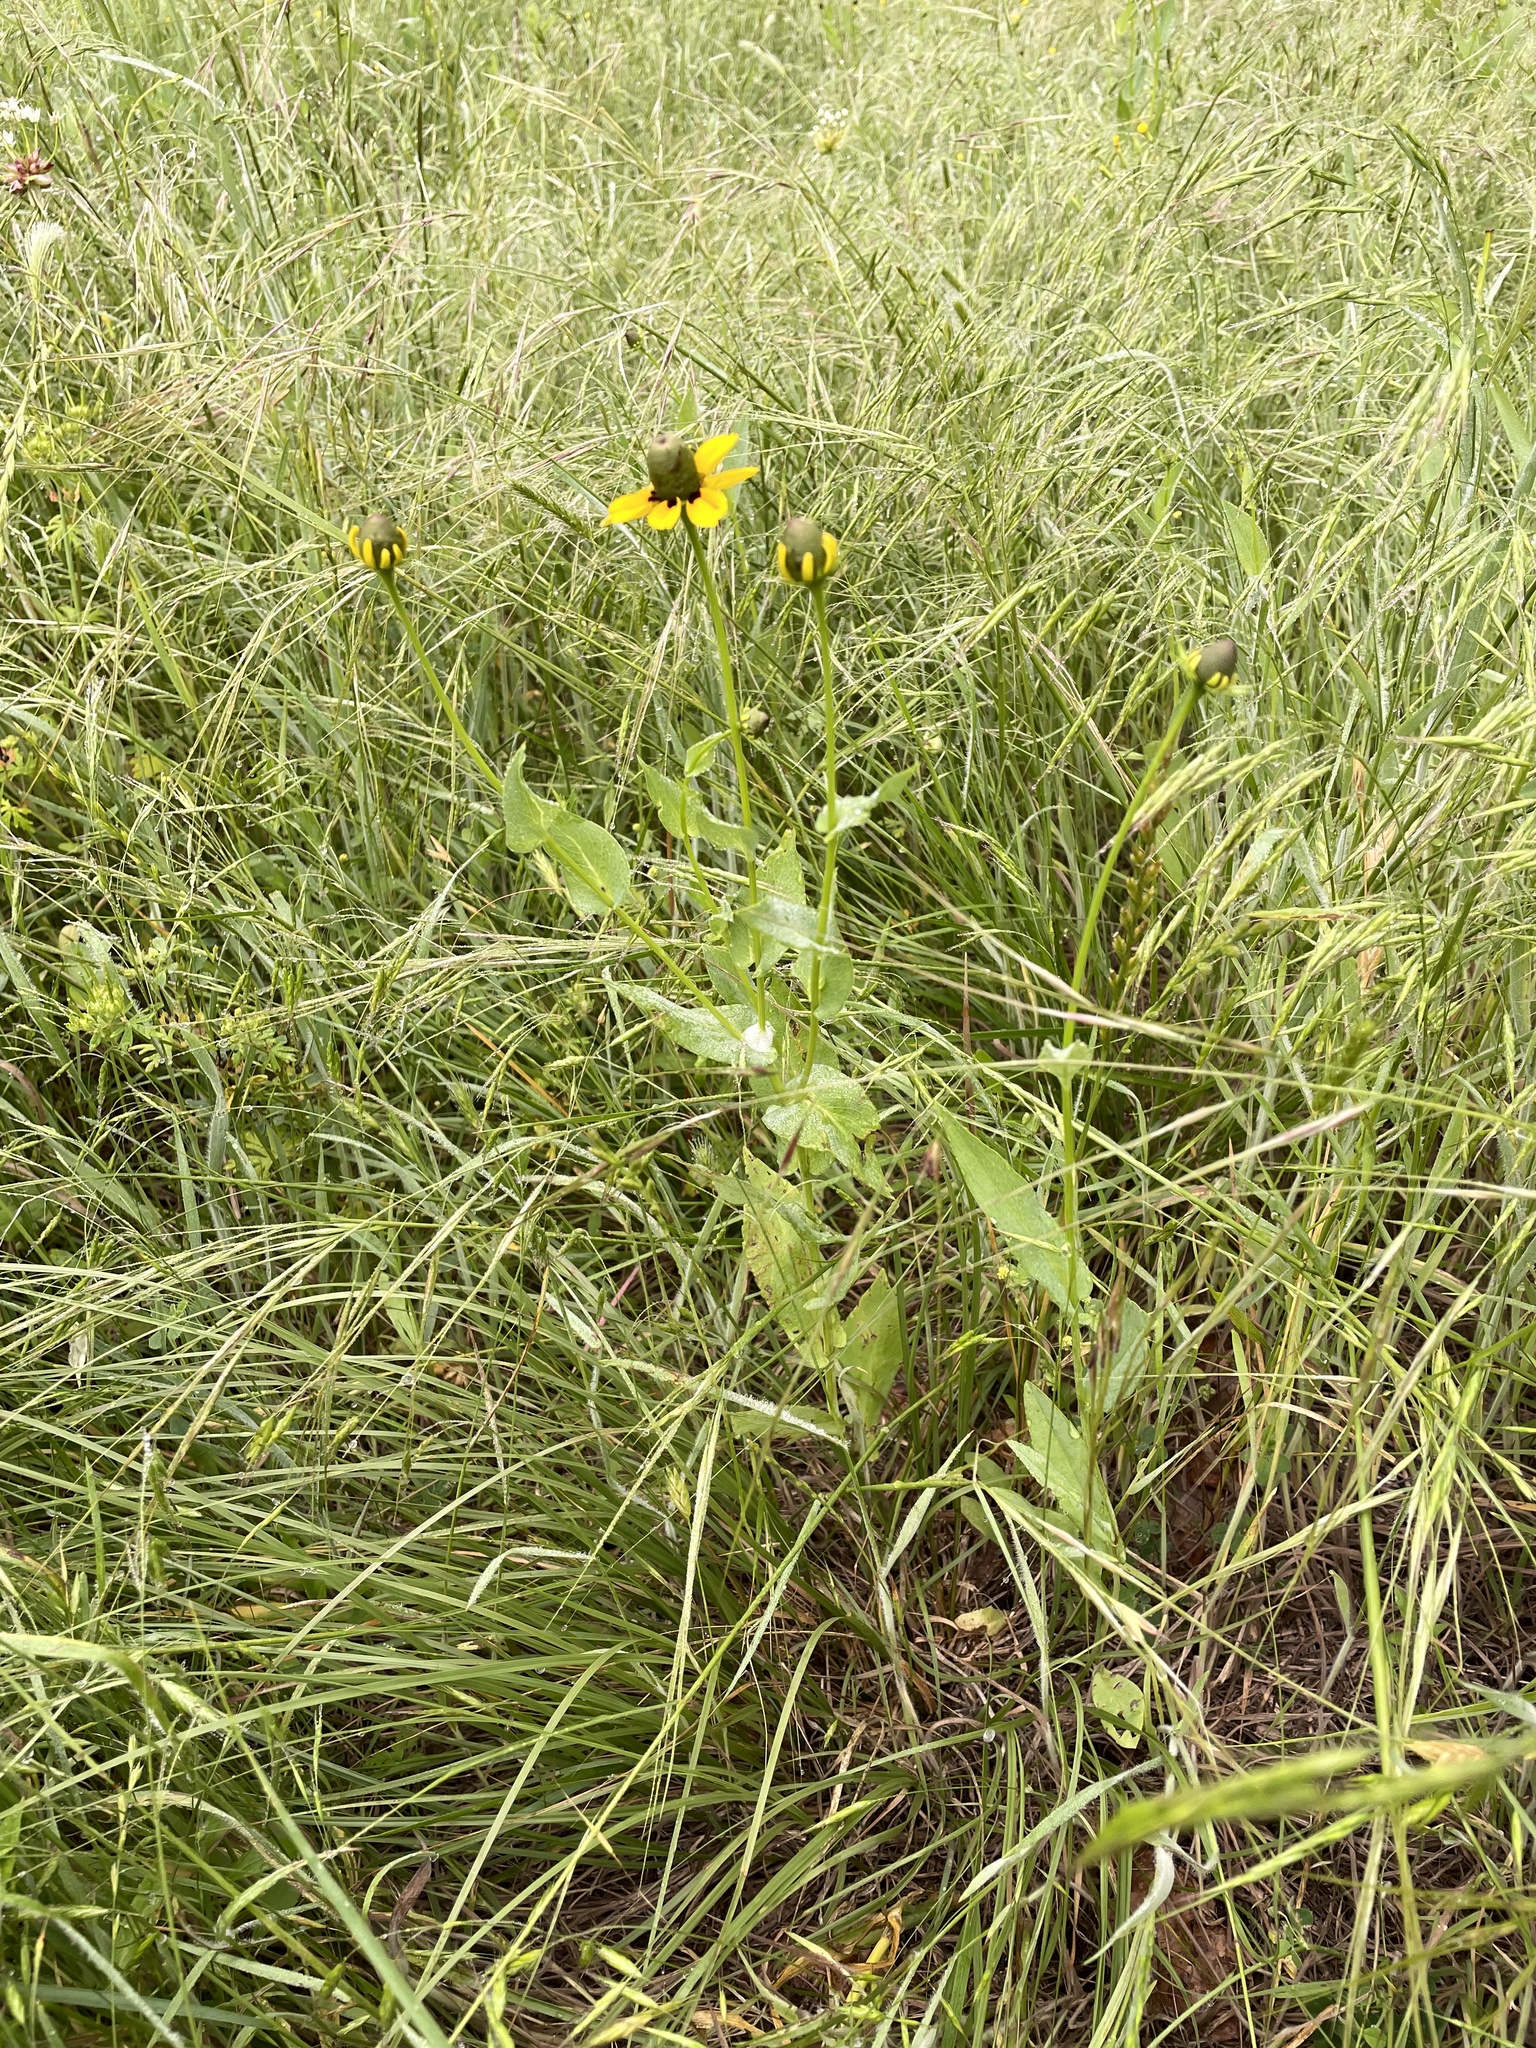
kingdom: Plantae
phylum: Tracheophyta
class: Magnoliopsida
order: Asterales
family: Asteraceae
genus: Rudbeckia
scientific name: Rudbeckia amplexicaulis
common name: Clasping-leaf coneflower
